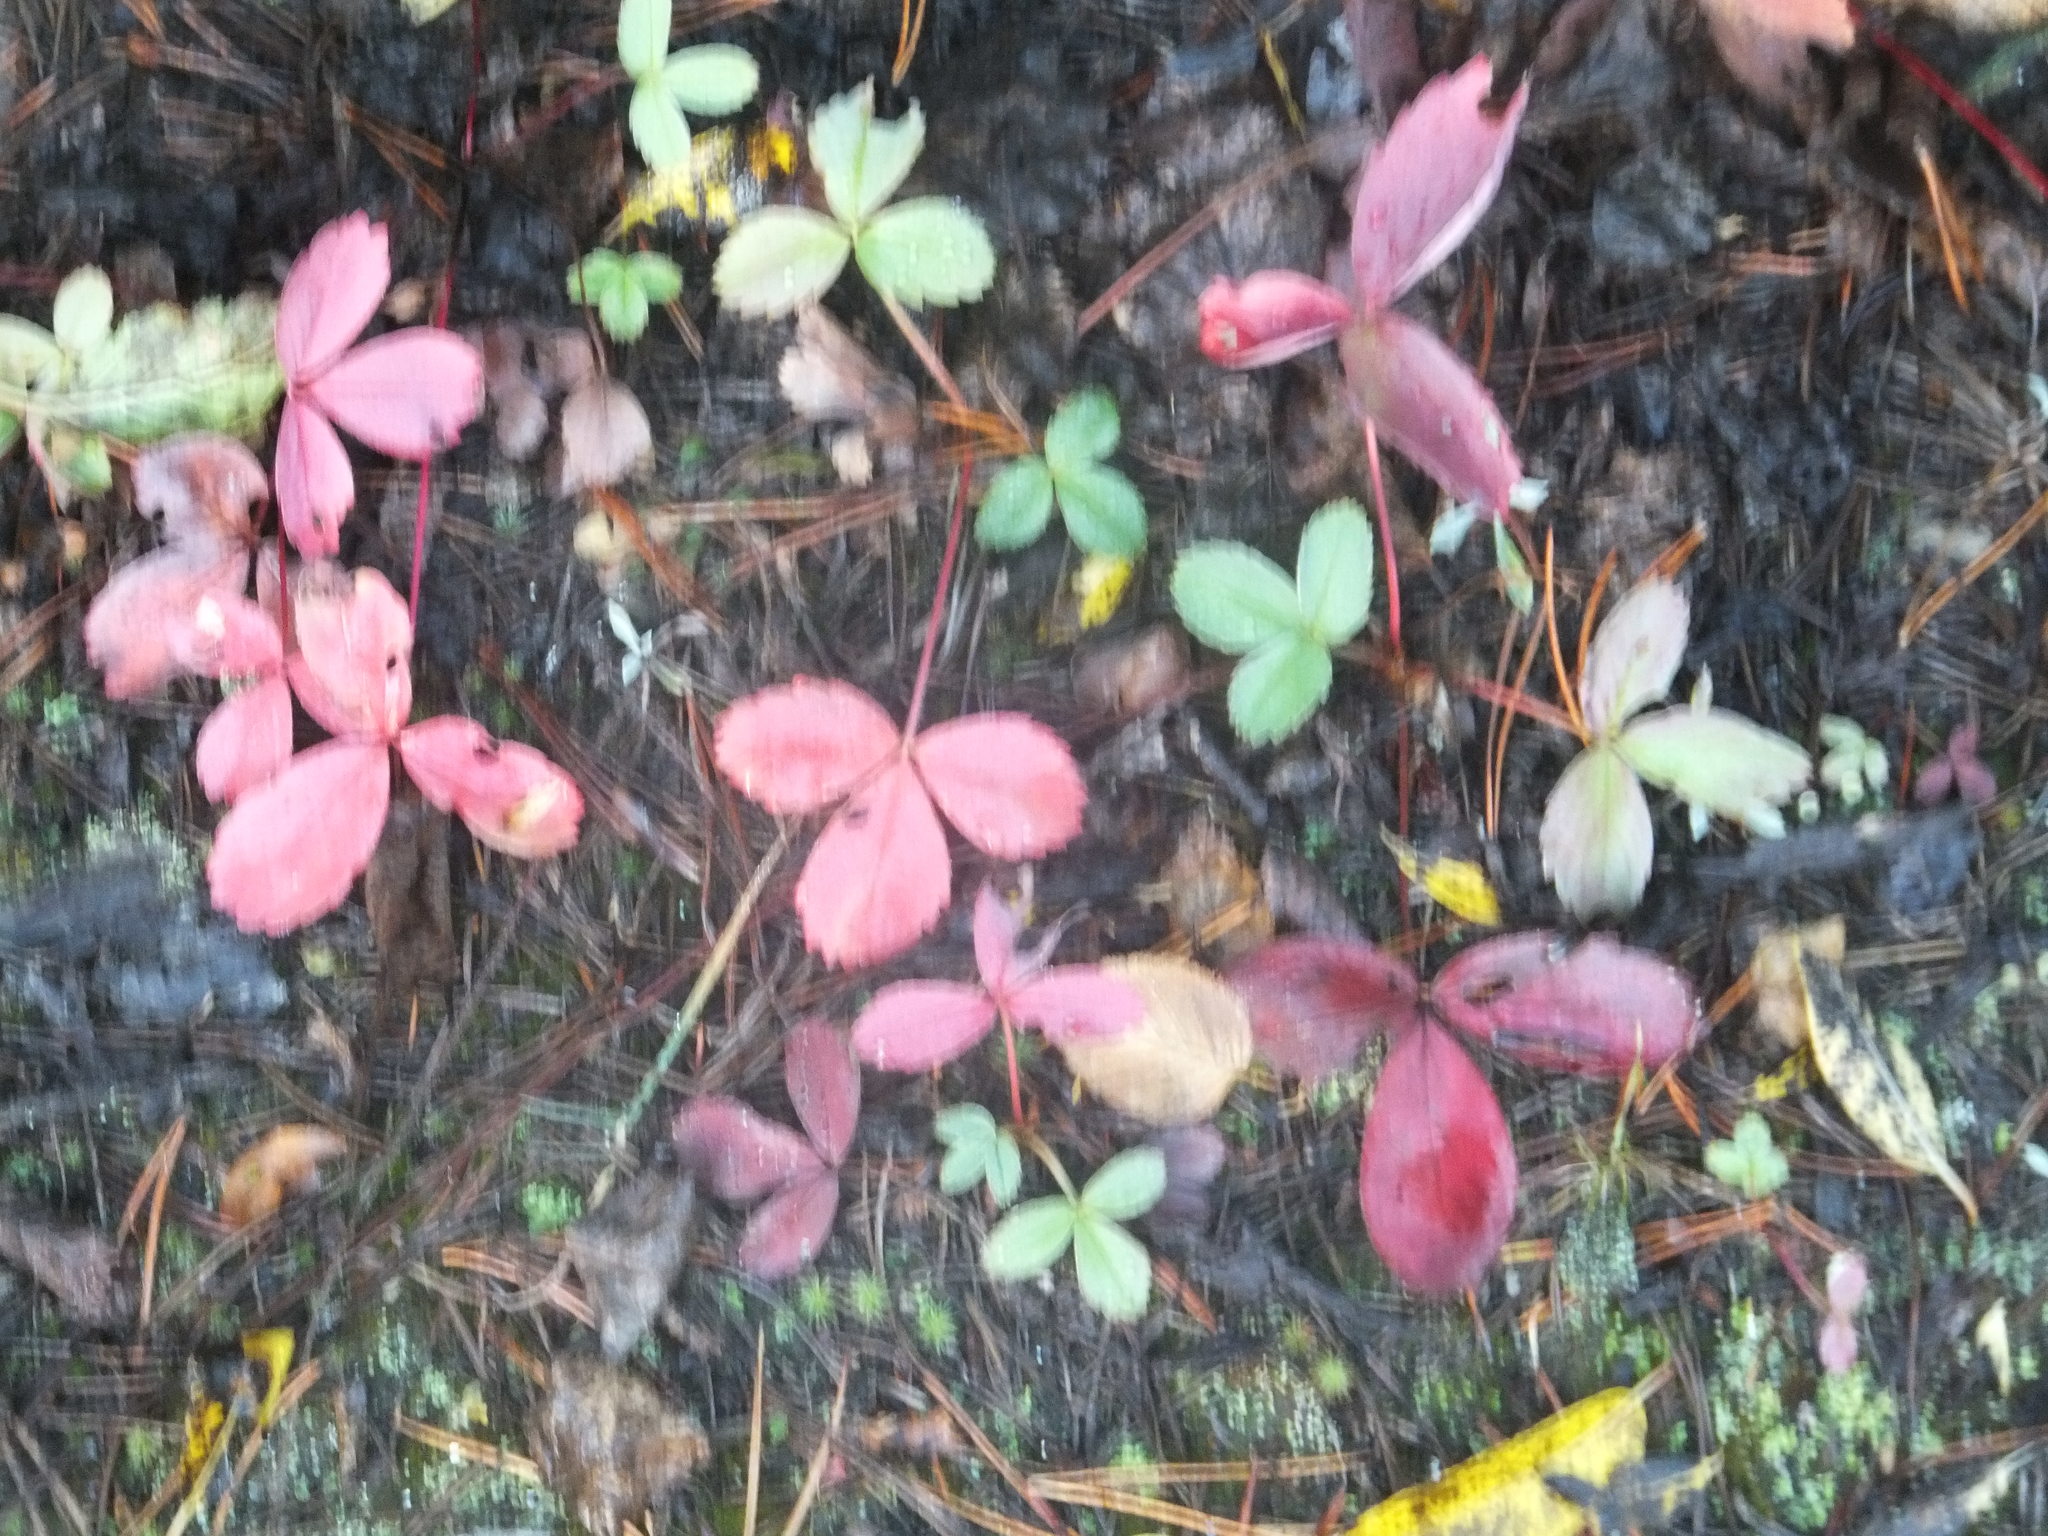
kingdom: Plantae
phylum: Tracheophyta
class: Magnoliopsida
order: Rosales
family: Rosaceae
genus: Fragaria
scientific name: Fragaria virginiana
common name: Thickleaved wild strawberry
